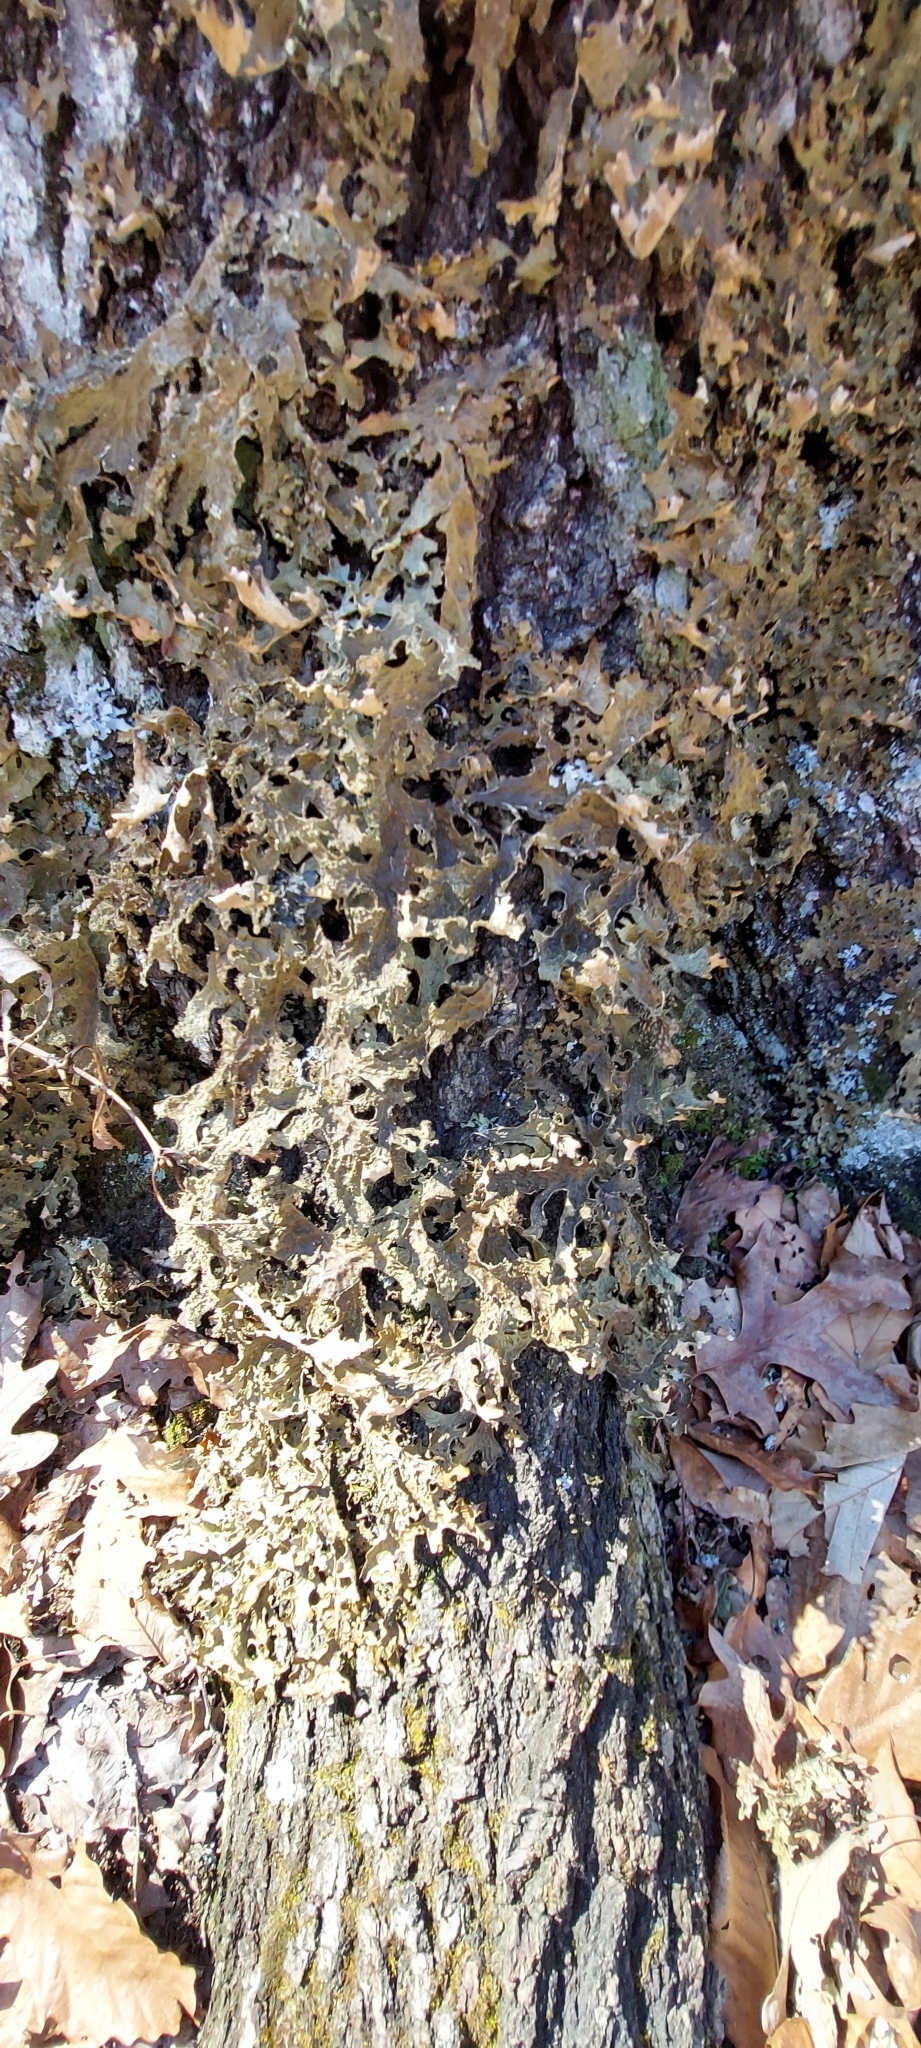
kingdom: Fungi
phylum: Ascomycota
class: Lecanoromycetes
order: Peltigerales
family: Lobariaceae
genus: Lobaria
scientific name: Lobaria pulmonaria
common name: Lungwort
